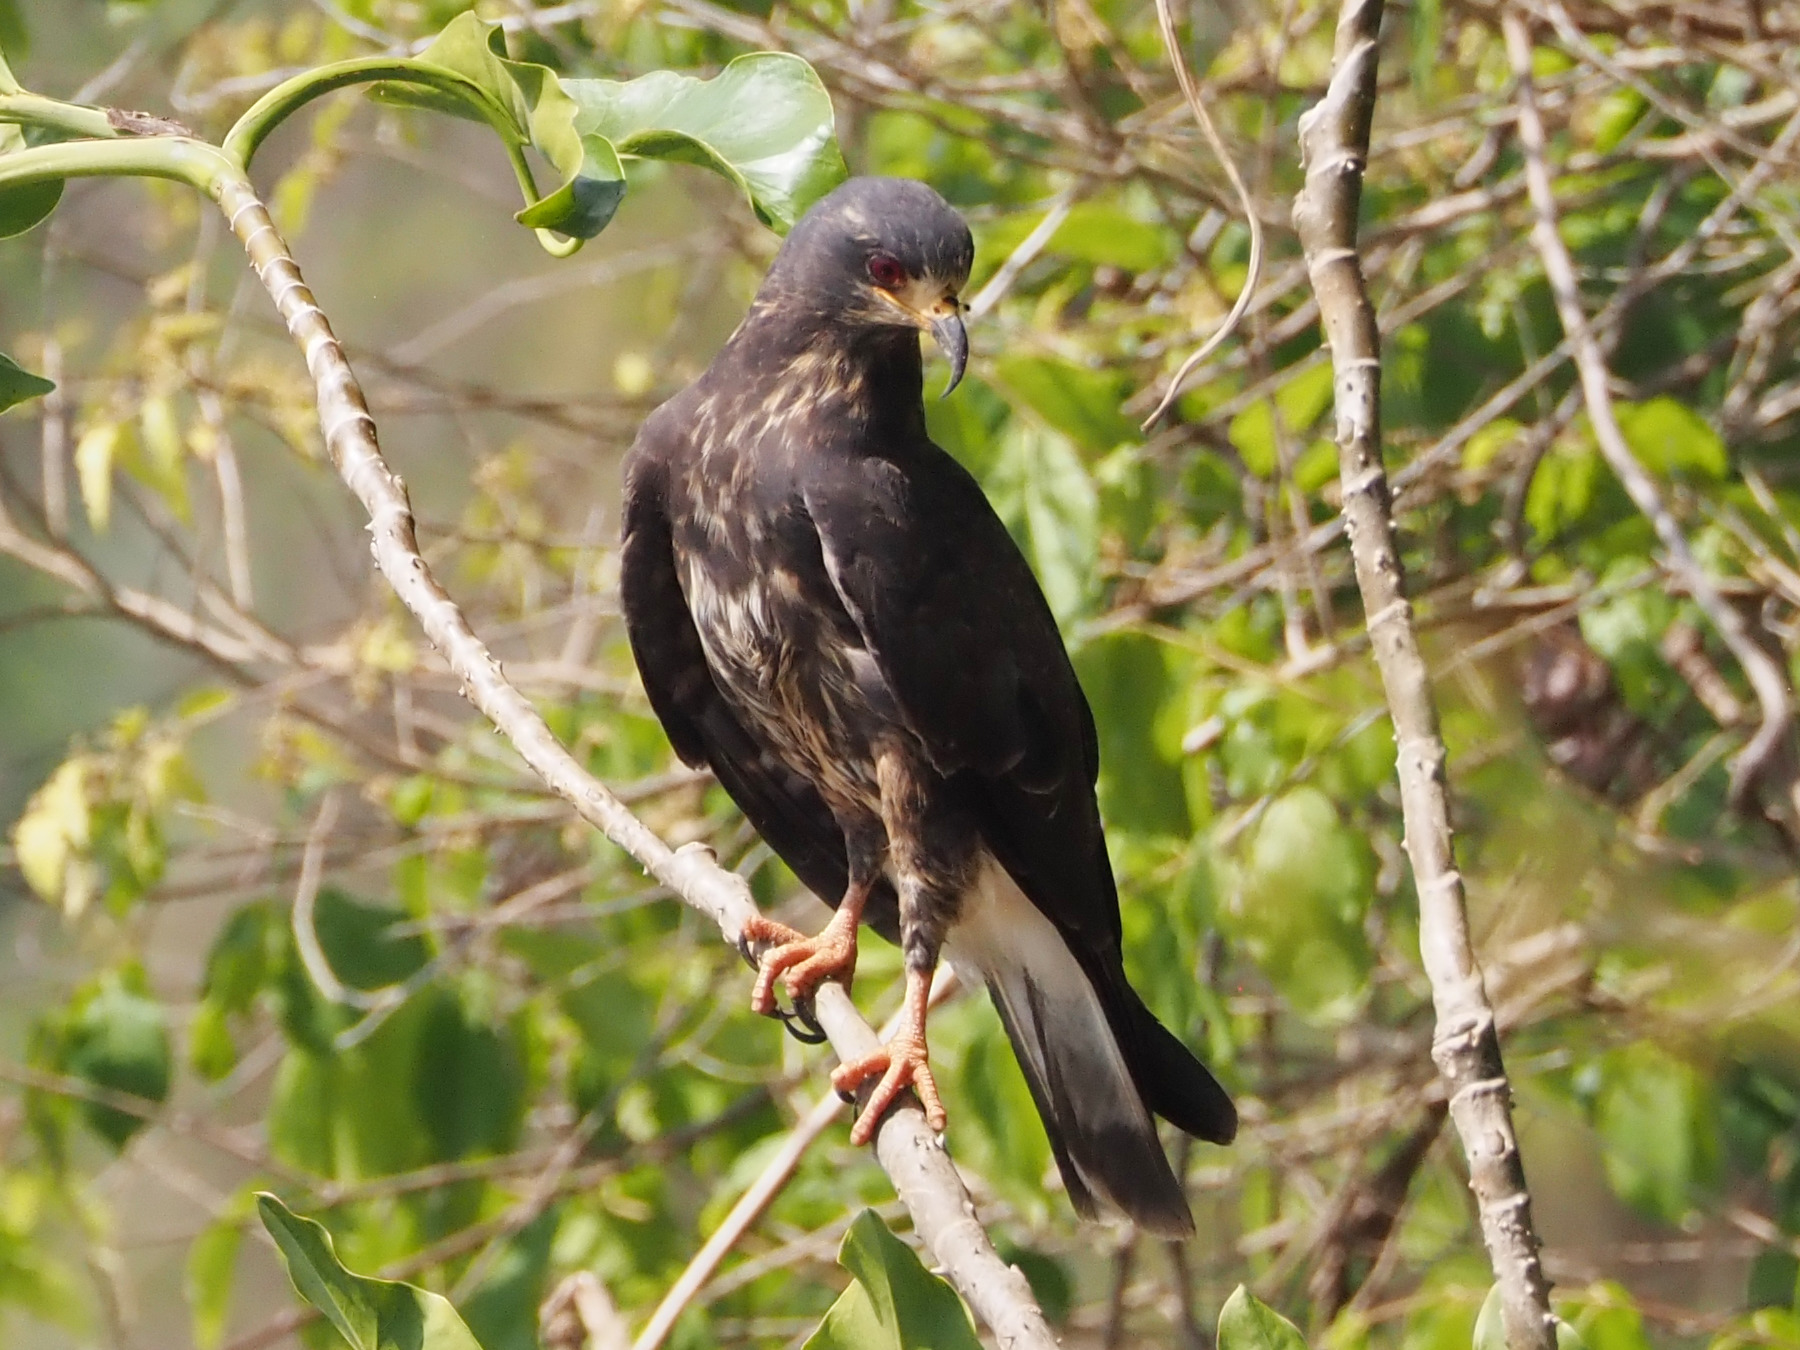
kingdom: Animalia
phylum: Chordata
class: Aves
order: Accipitriformes
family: Accipitridae
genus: Rostrhamus
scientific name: Rostrhamus sociabilis
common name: Snail kite
